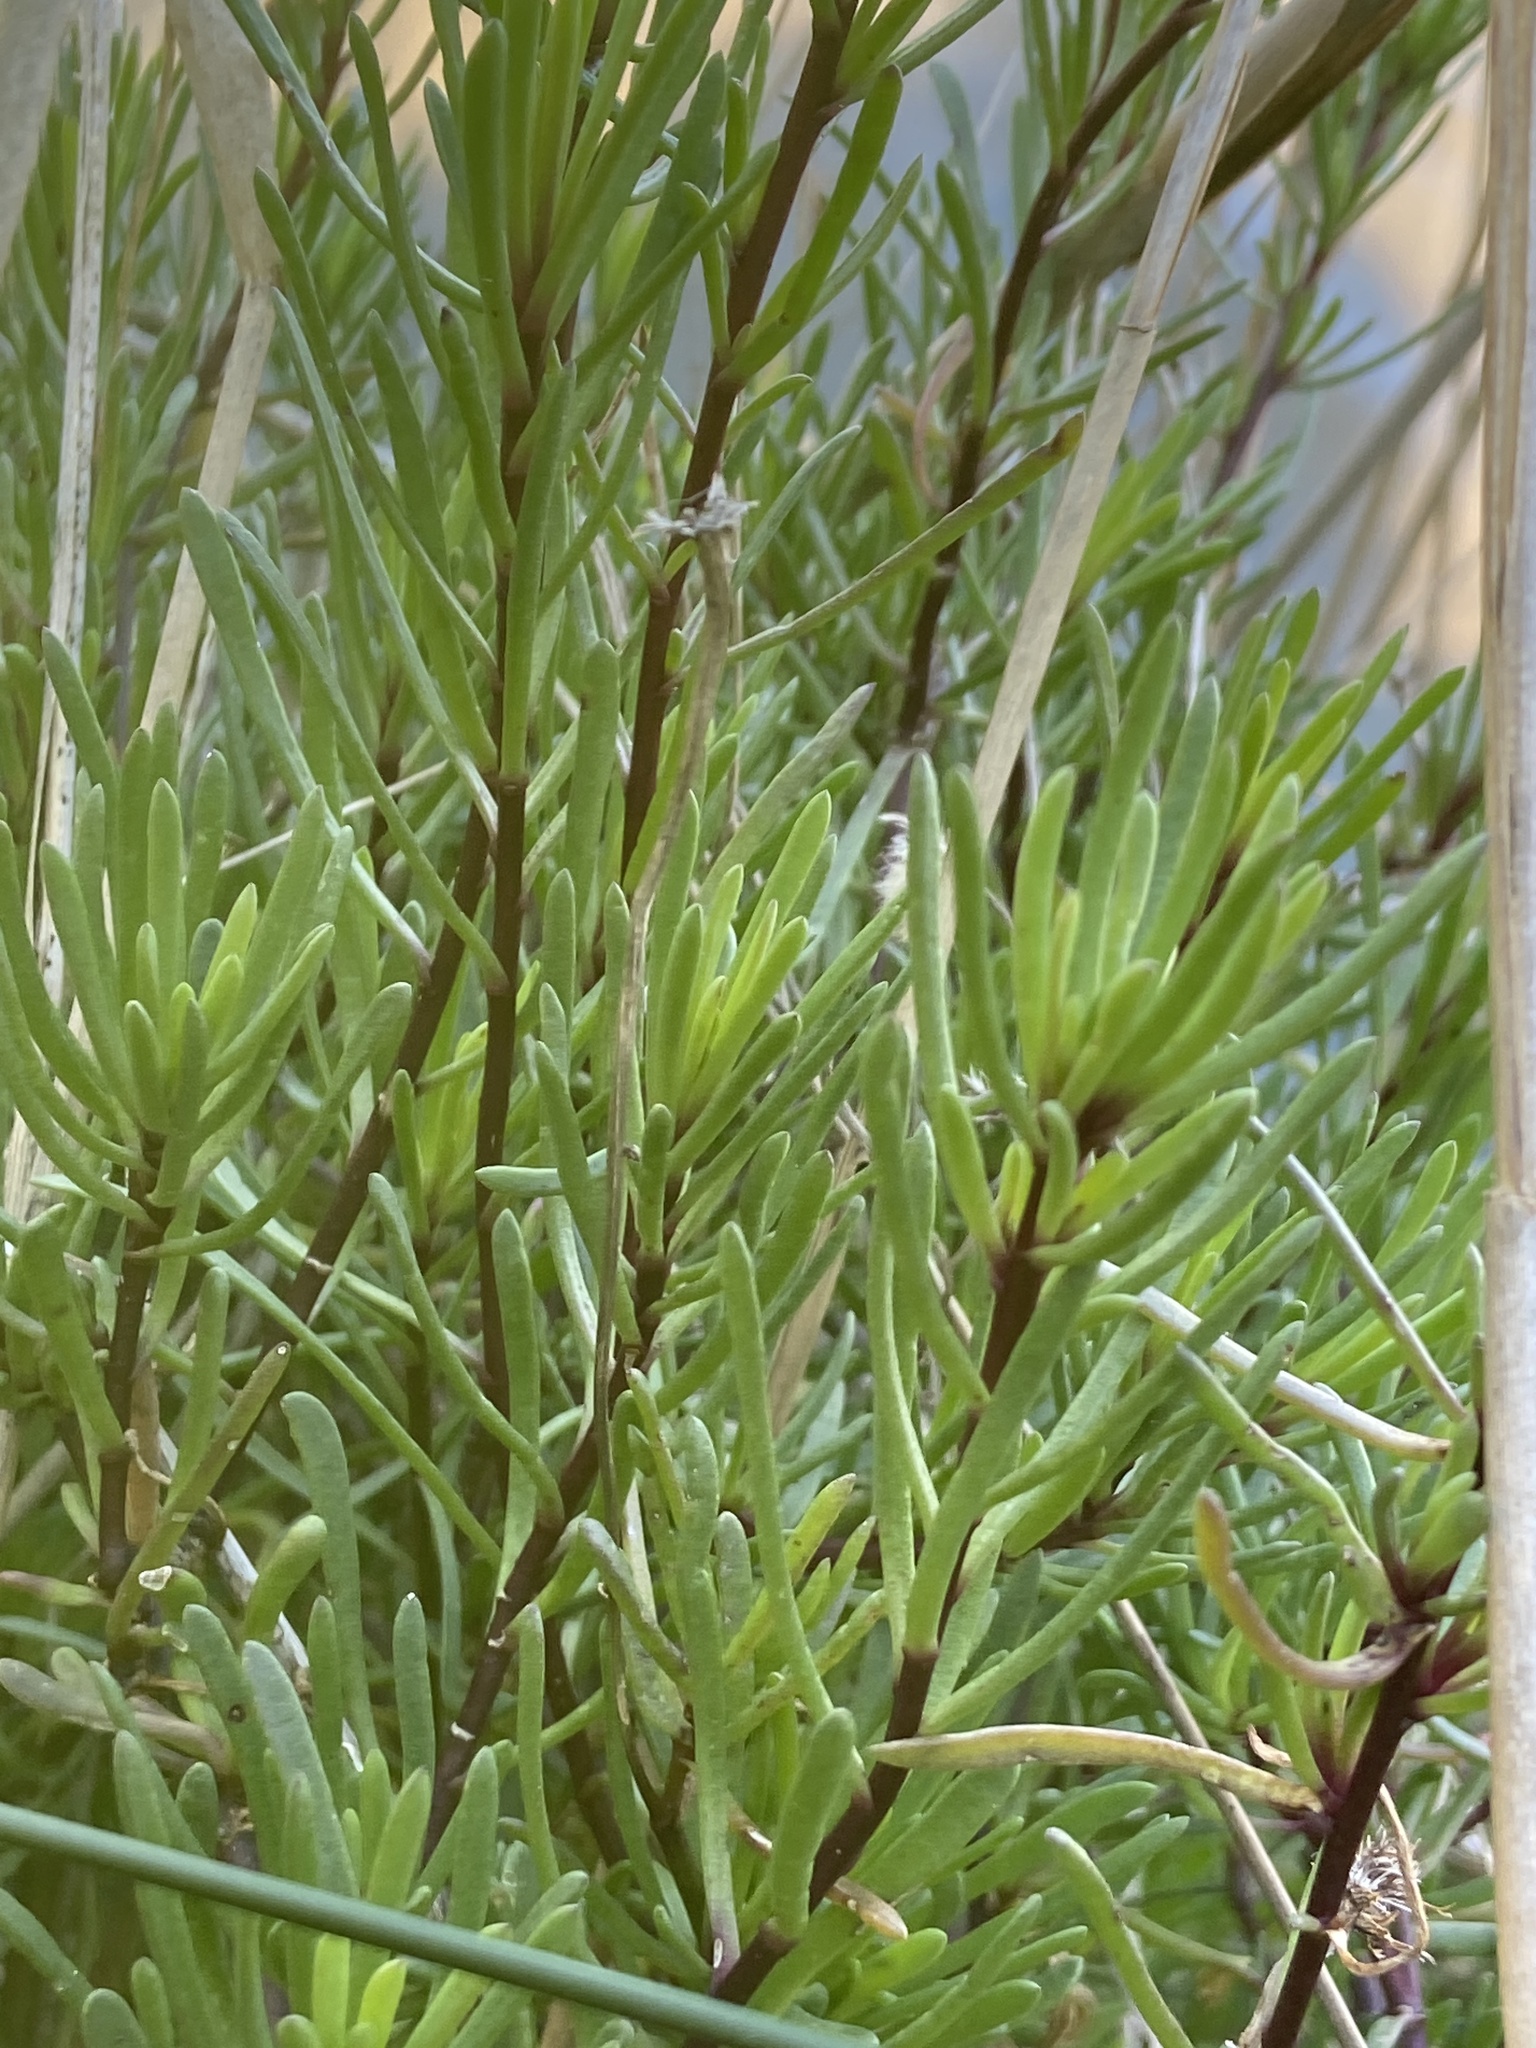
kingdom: Plantae
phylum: Tracheophyta
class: Magnoliopsida
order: Asterales
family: Asteraceae
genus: Limbarda
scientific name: Limbarda crithmoides
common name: Golden samphire
